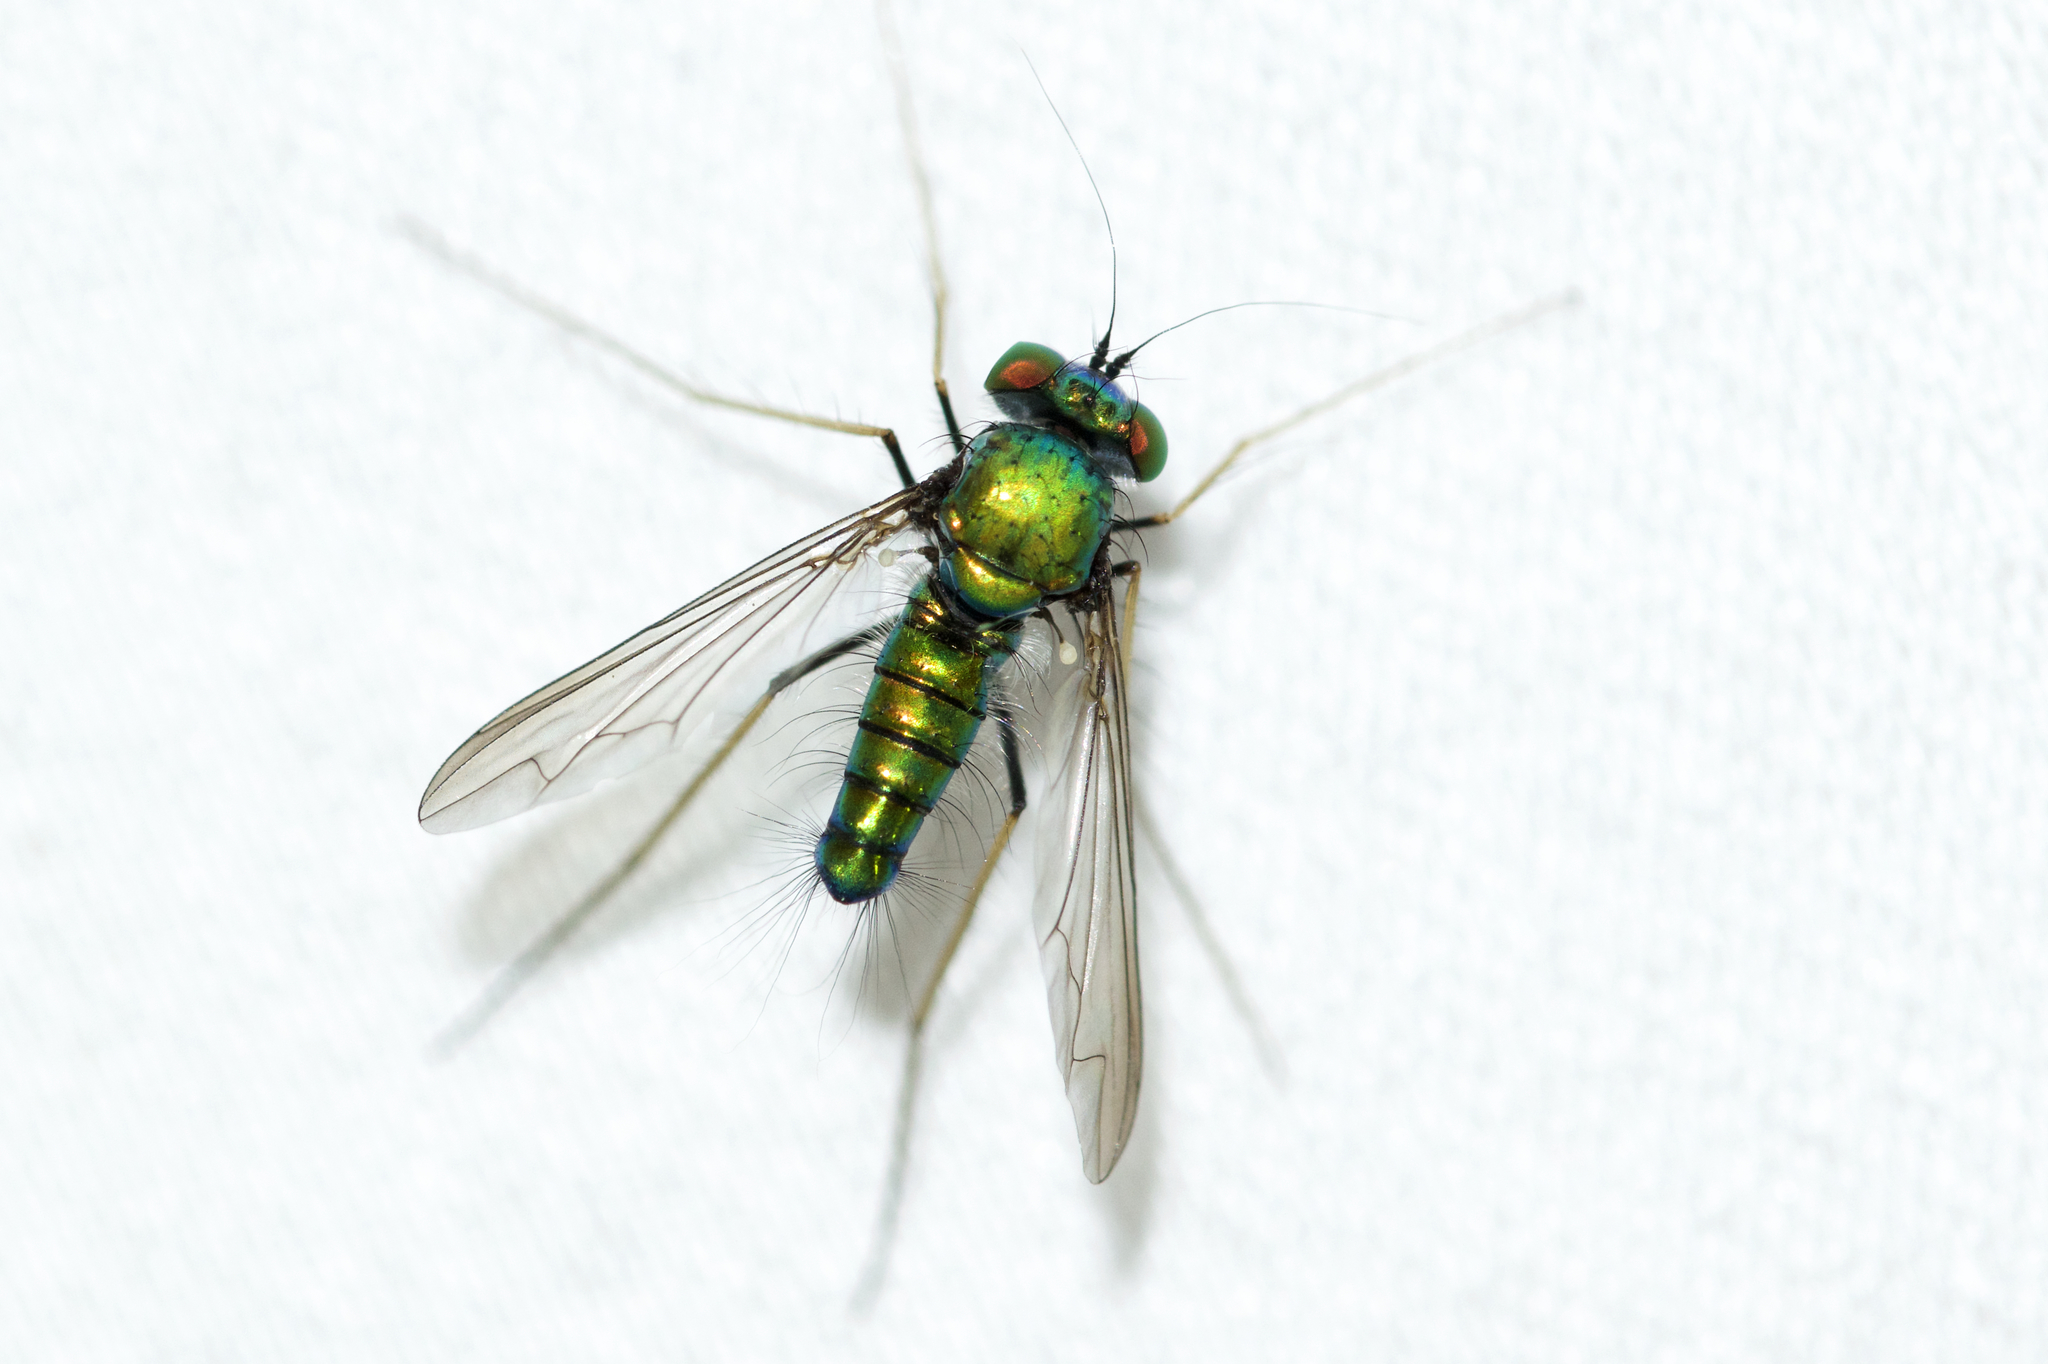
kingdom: Animalia
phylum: Arthropoda
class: Insecta
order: Diptera
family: Dolichopodidae
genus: Condylostylus
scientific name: Condylostylus comatus
